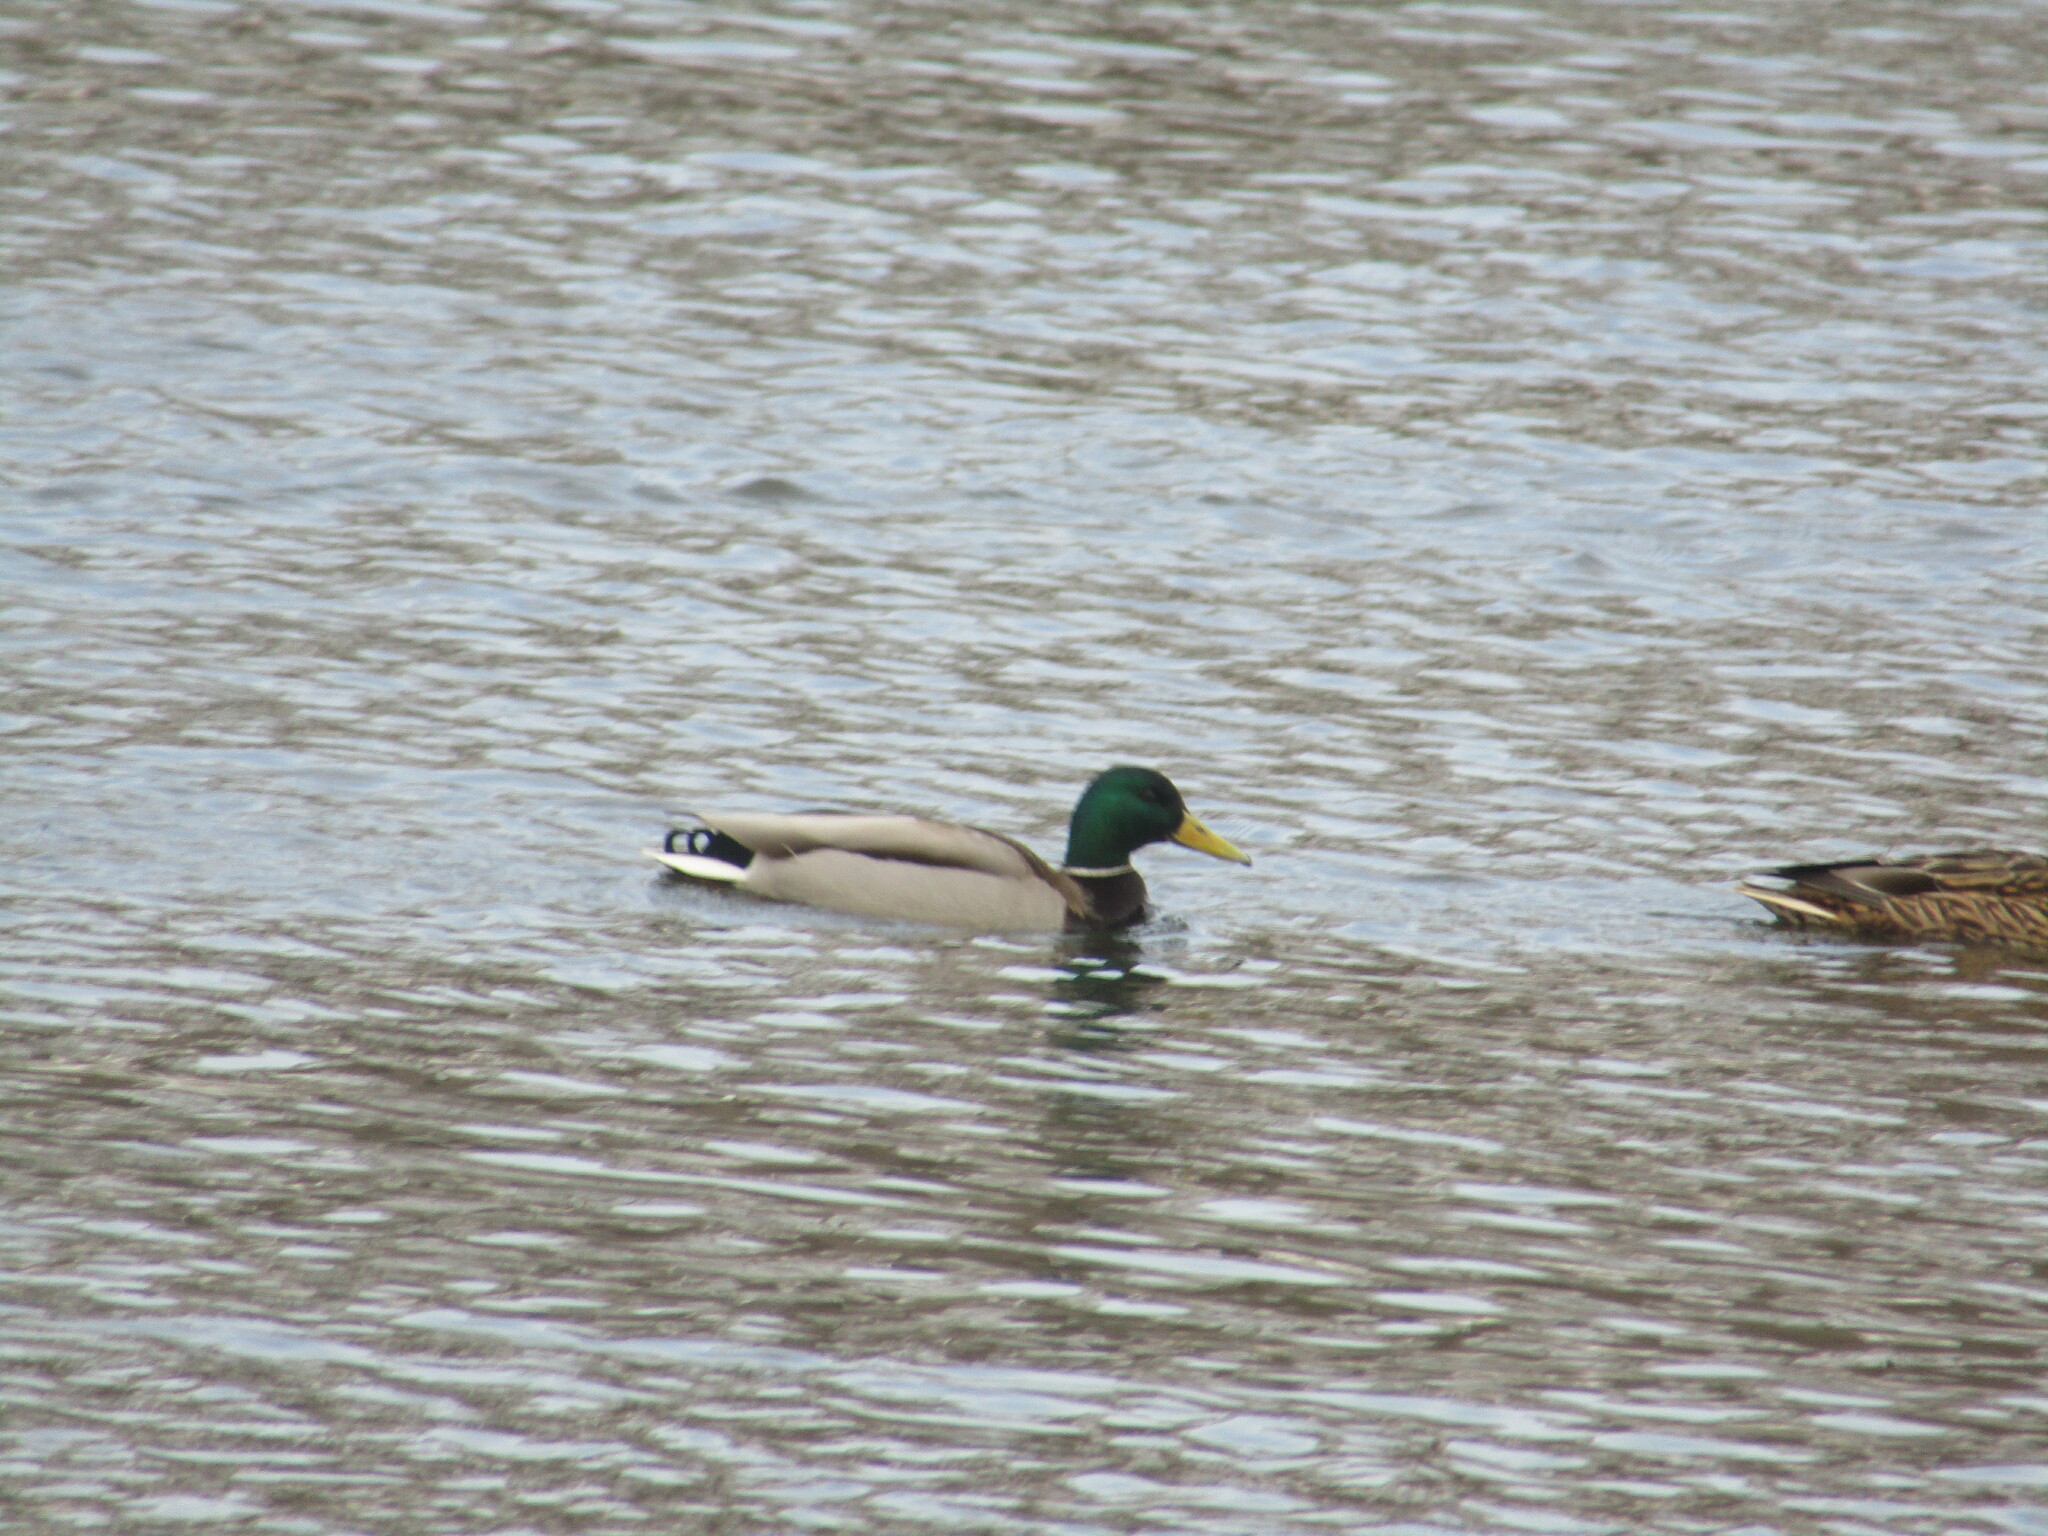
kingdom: Animalia
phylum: Chordata
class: Aves
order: Anseriformes
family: Anatidae
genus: Anas
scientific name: Anas platyrhynchos
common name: Mallard
